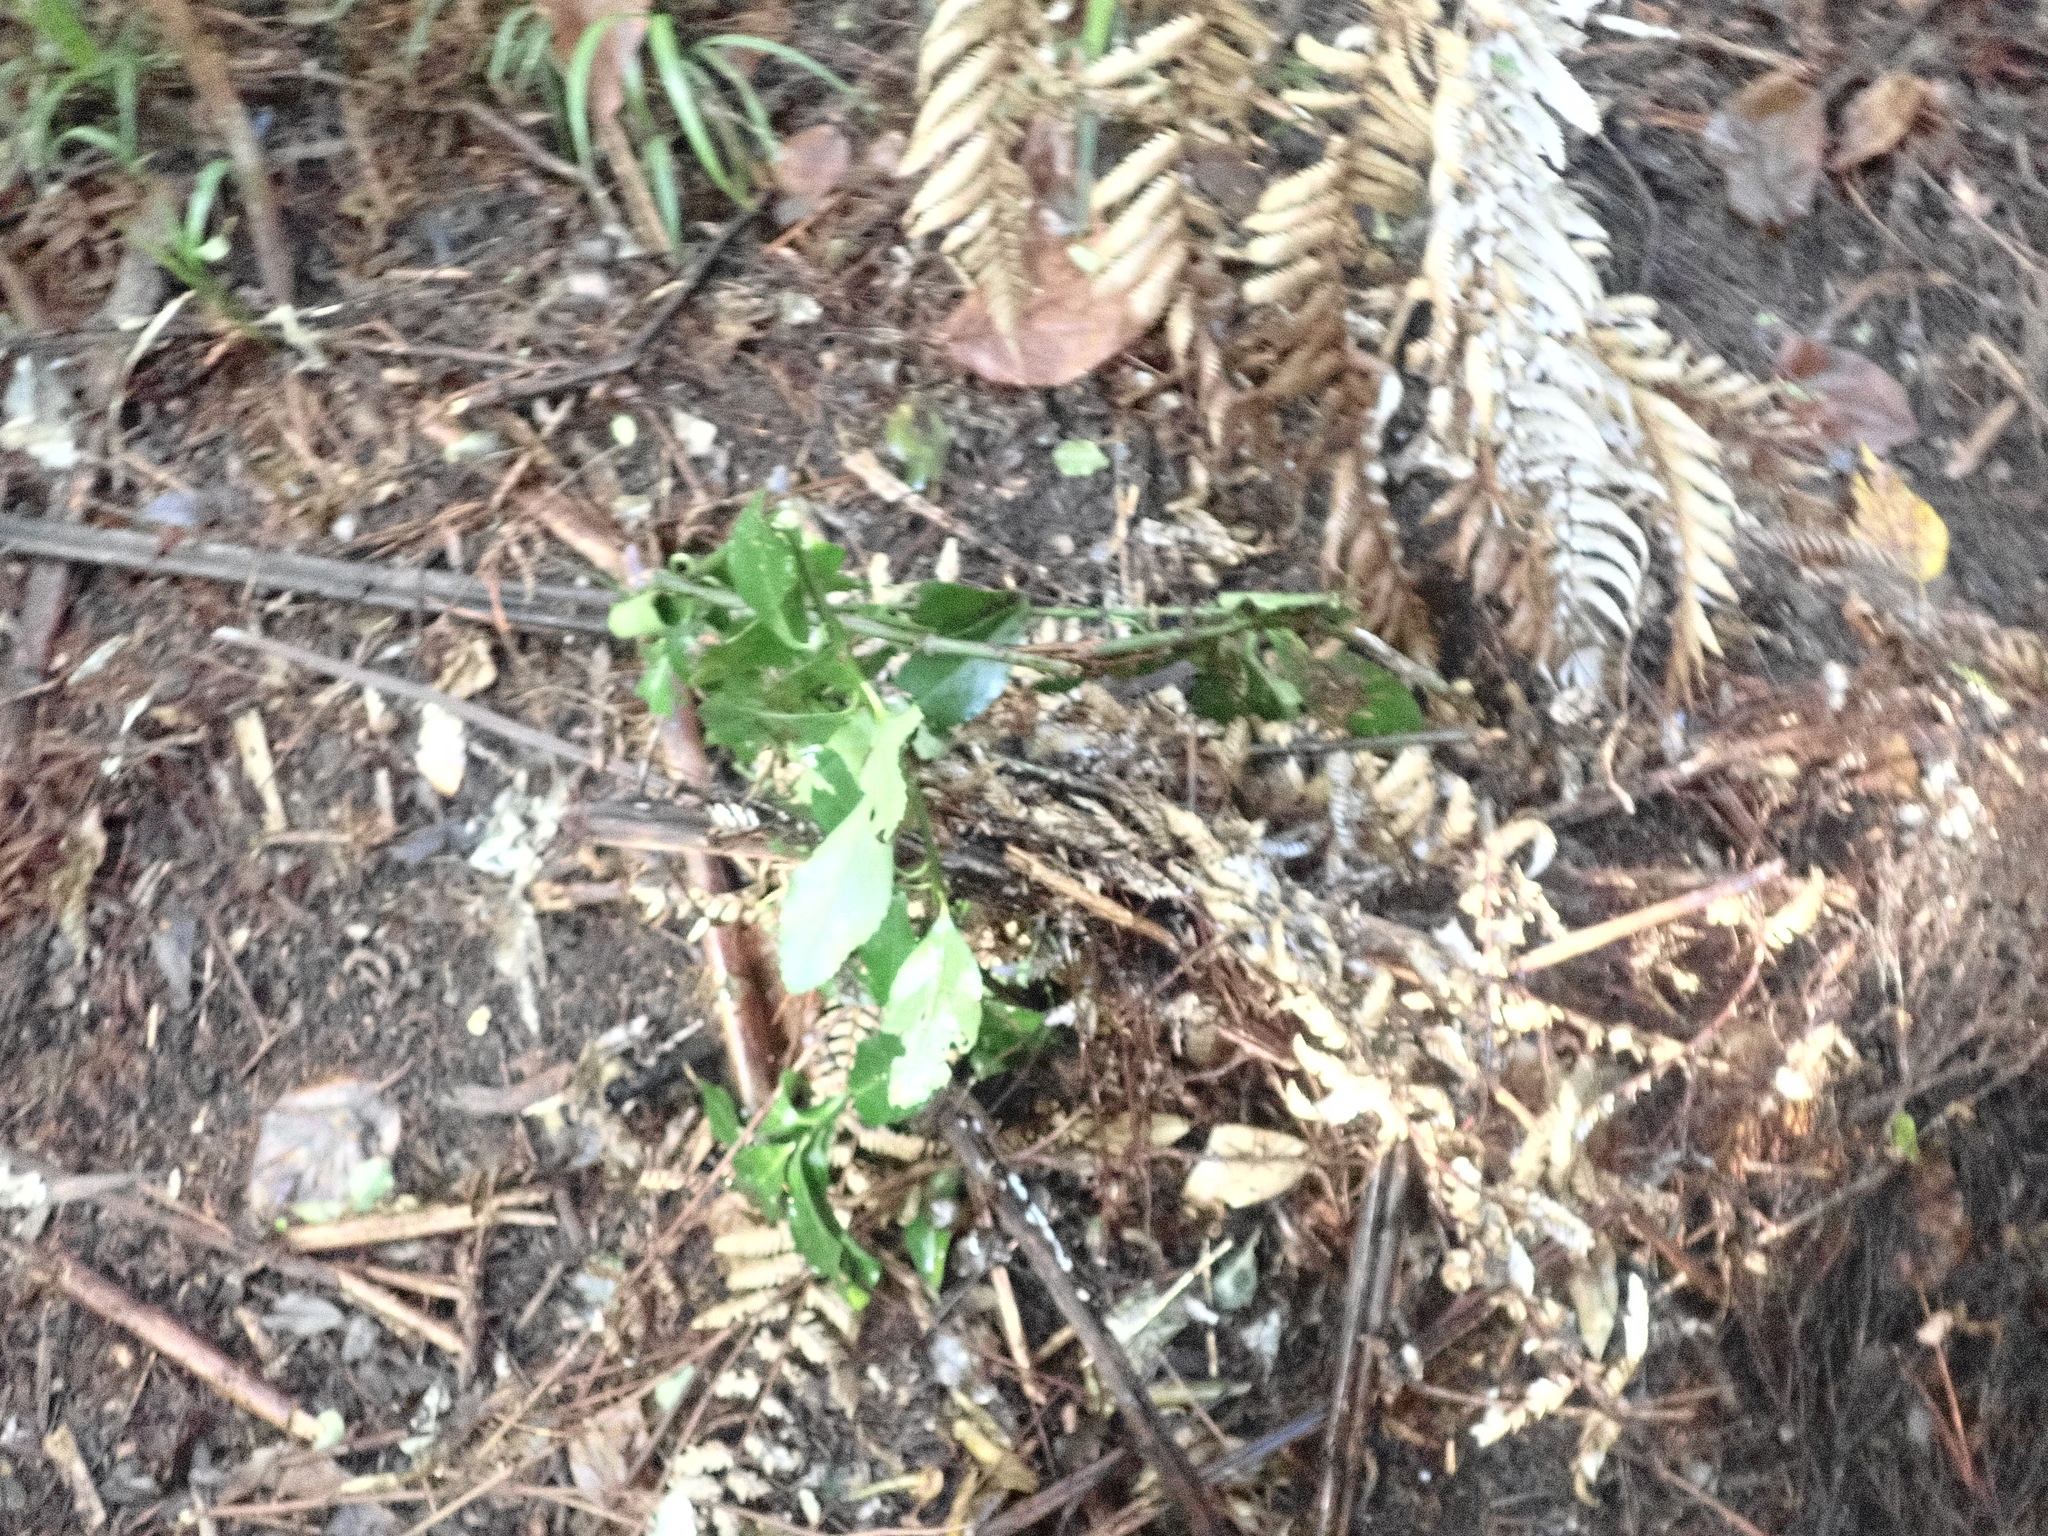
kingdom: Plantae
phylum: Tracheophyta
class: Magnoliopsida
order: Celastrales
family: Celastraceae
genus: Euonymus
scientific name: Euonymus japonicus
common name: Japanese spindletree
